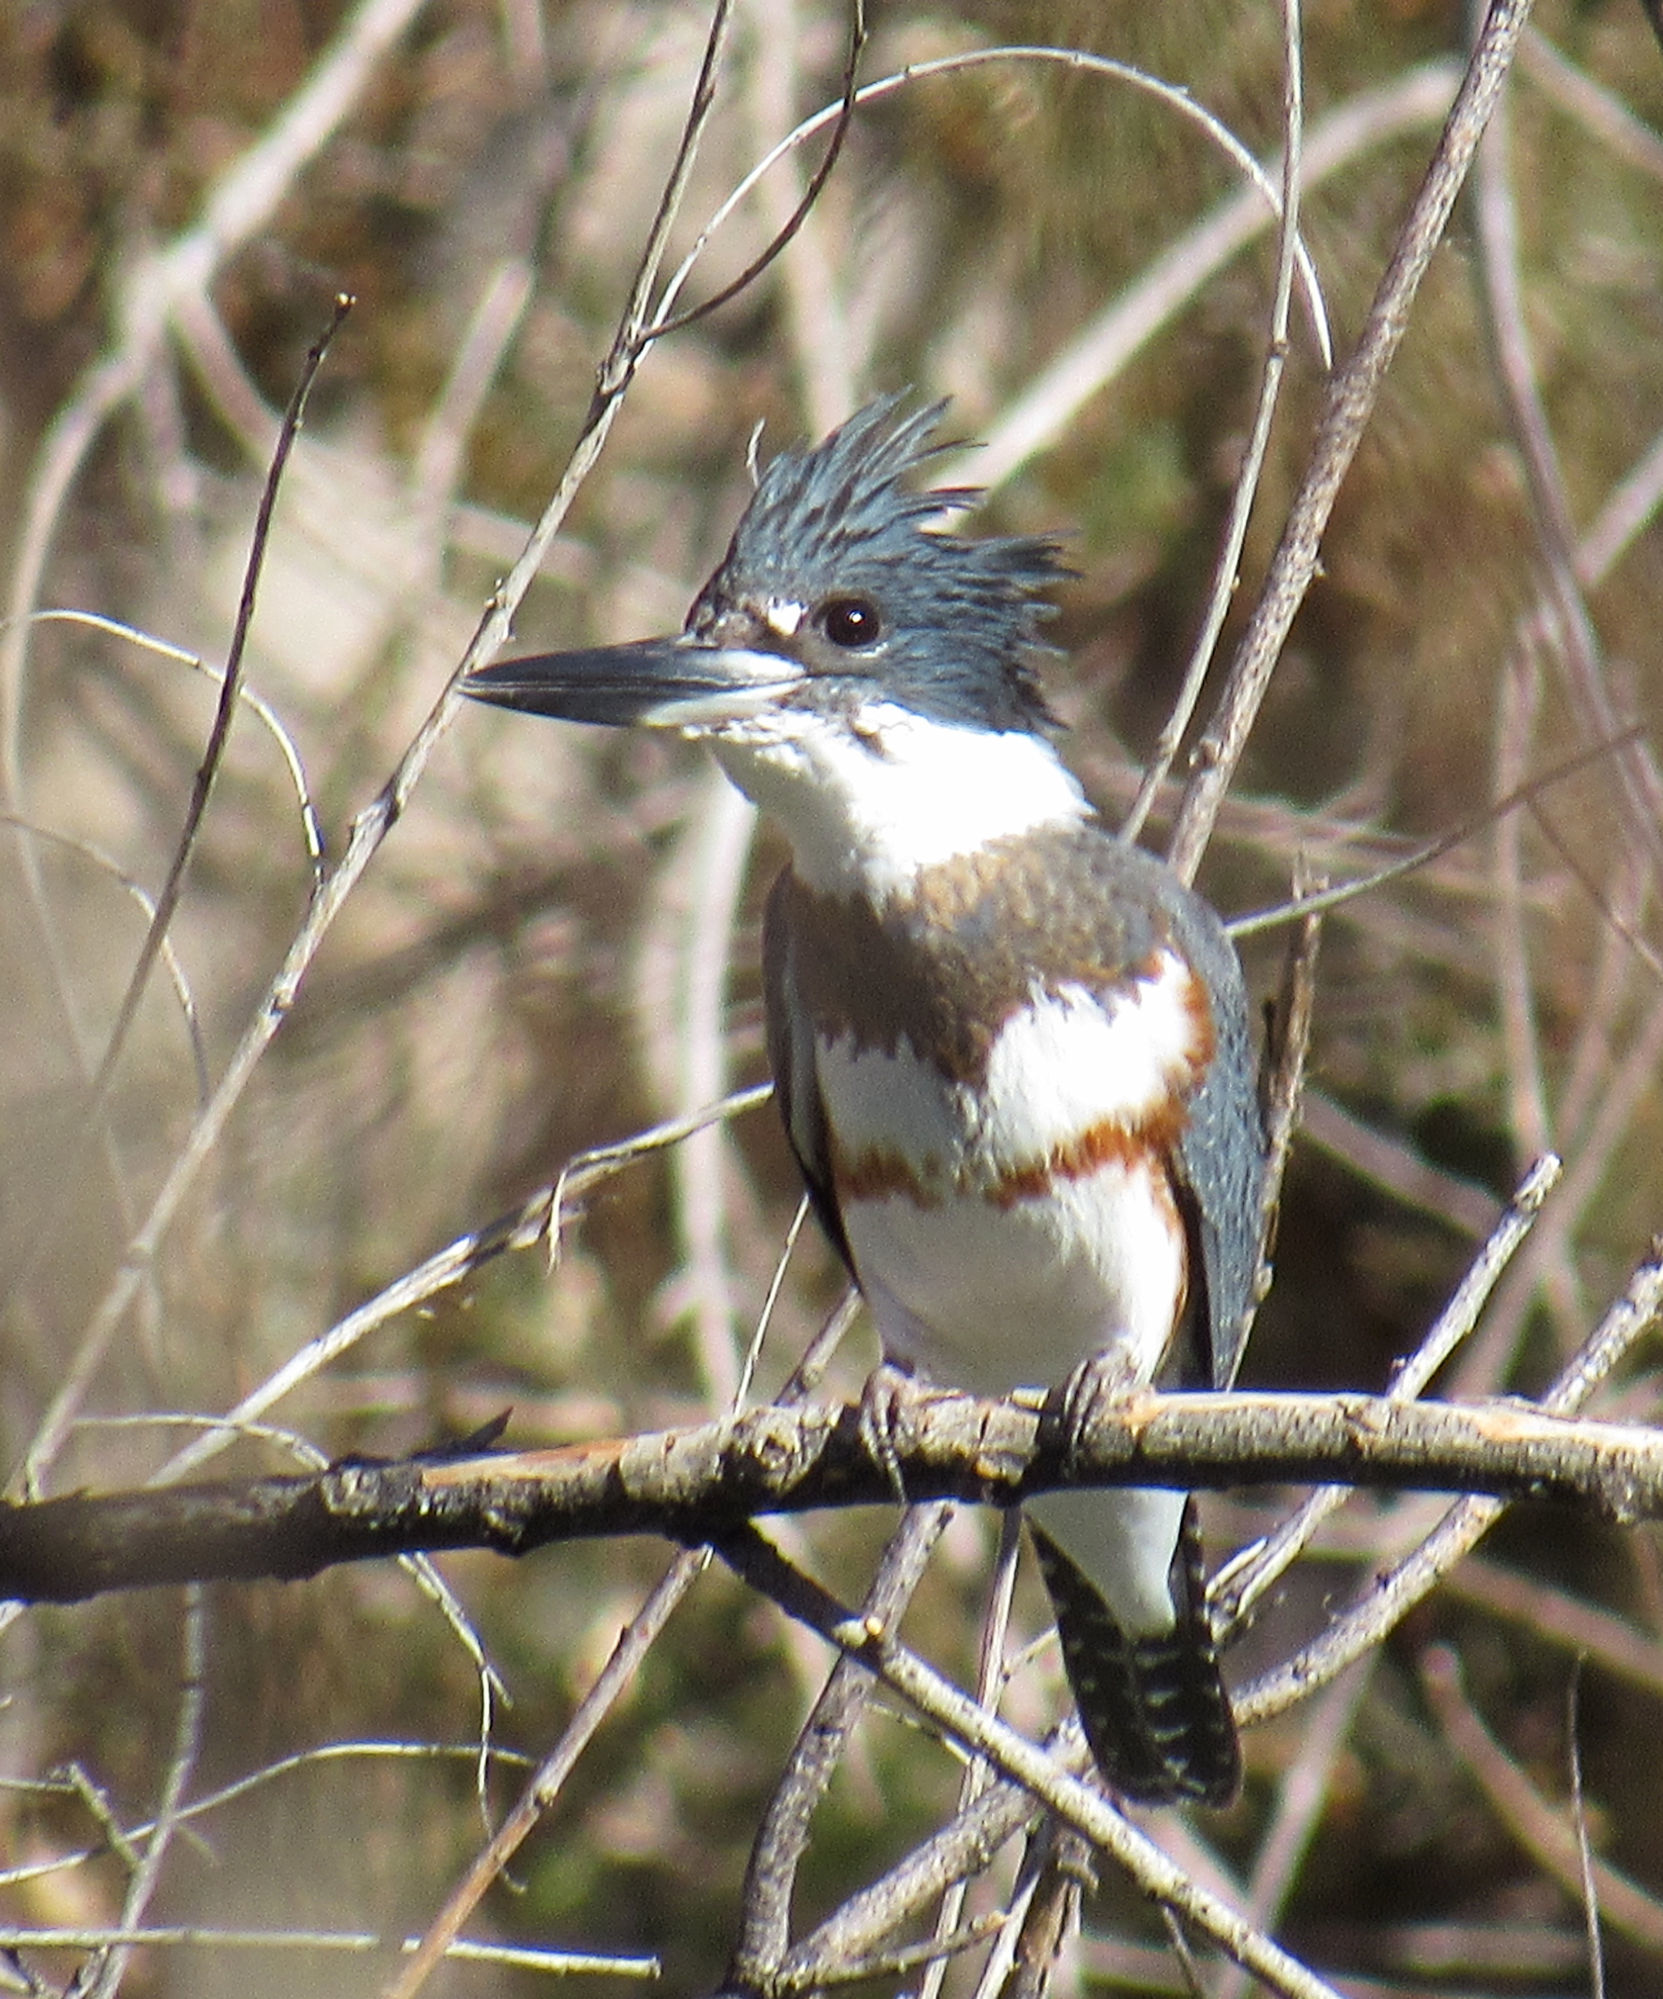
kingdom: Animalia
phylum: Chordata
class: Aves
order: Coraciiformes
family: Alcedinidae
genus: Megaceryle
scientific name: Megaceryle alcyon
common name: Belted kingfisher
